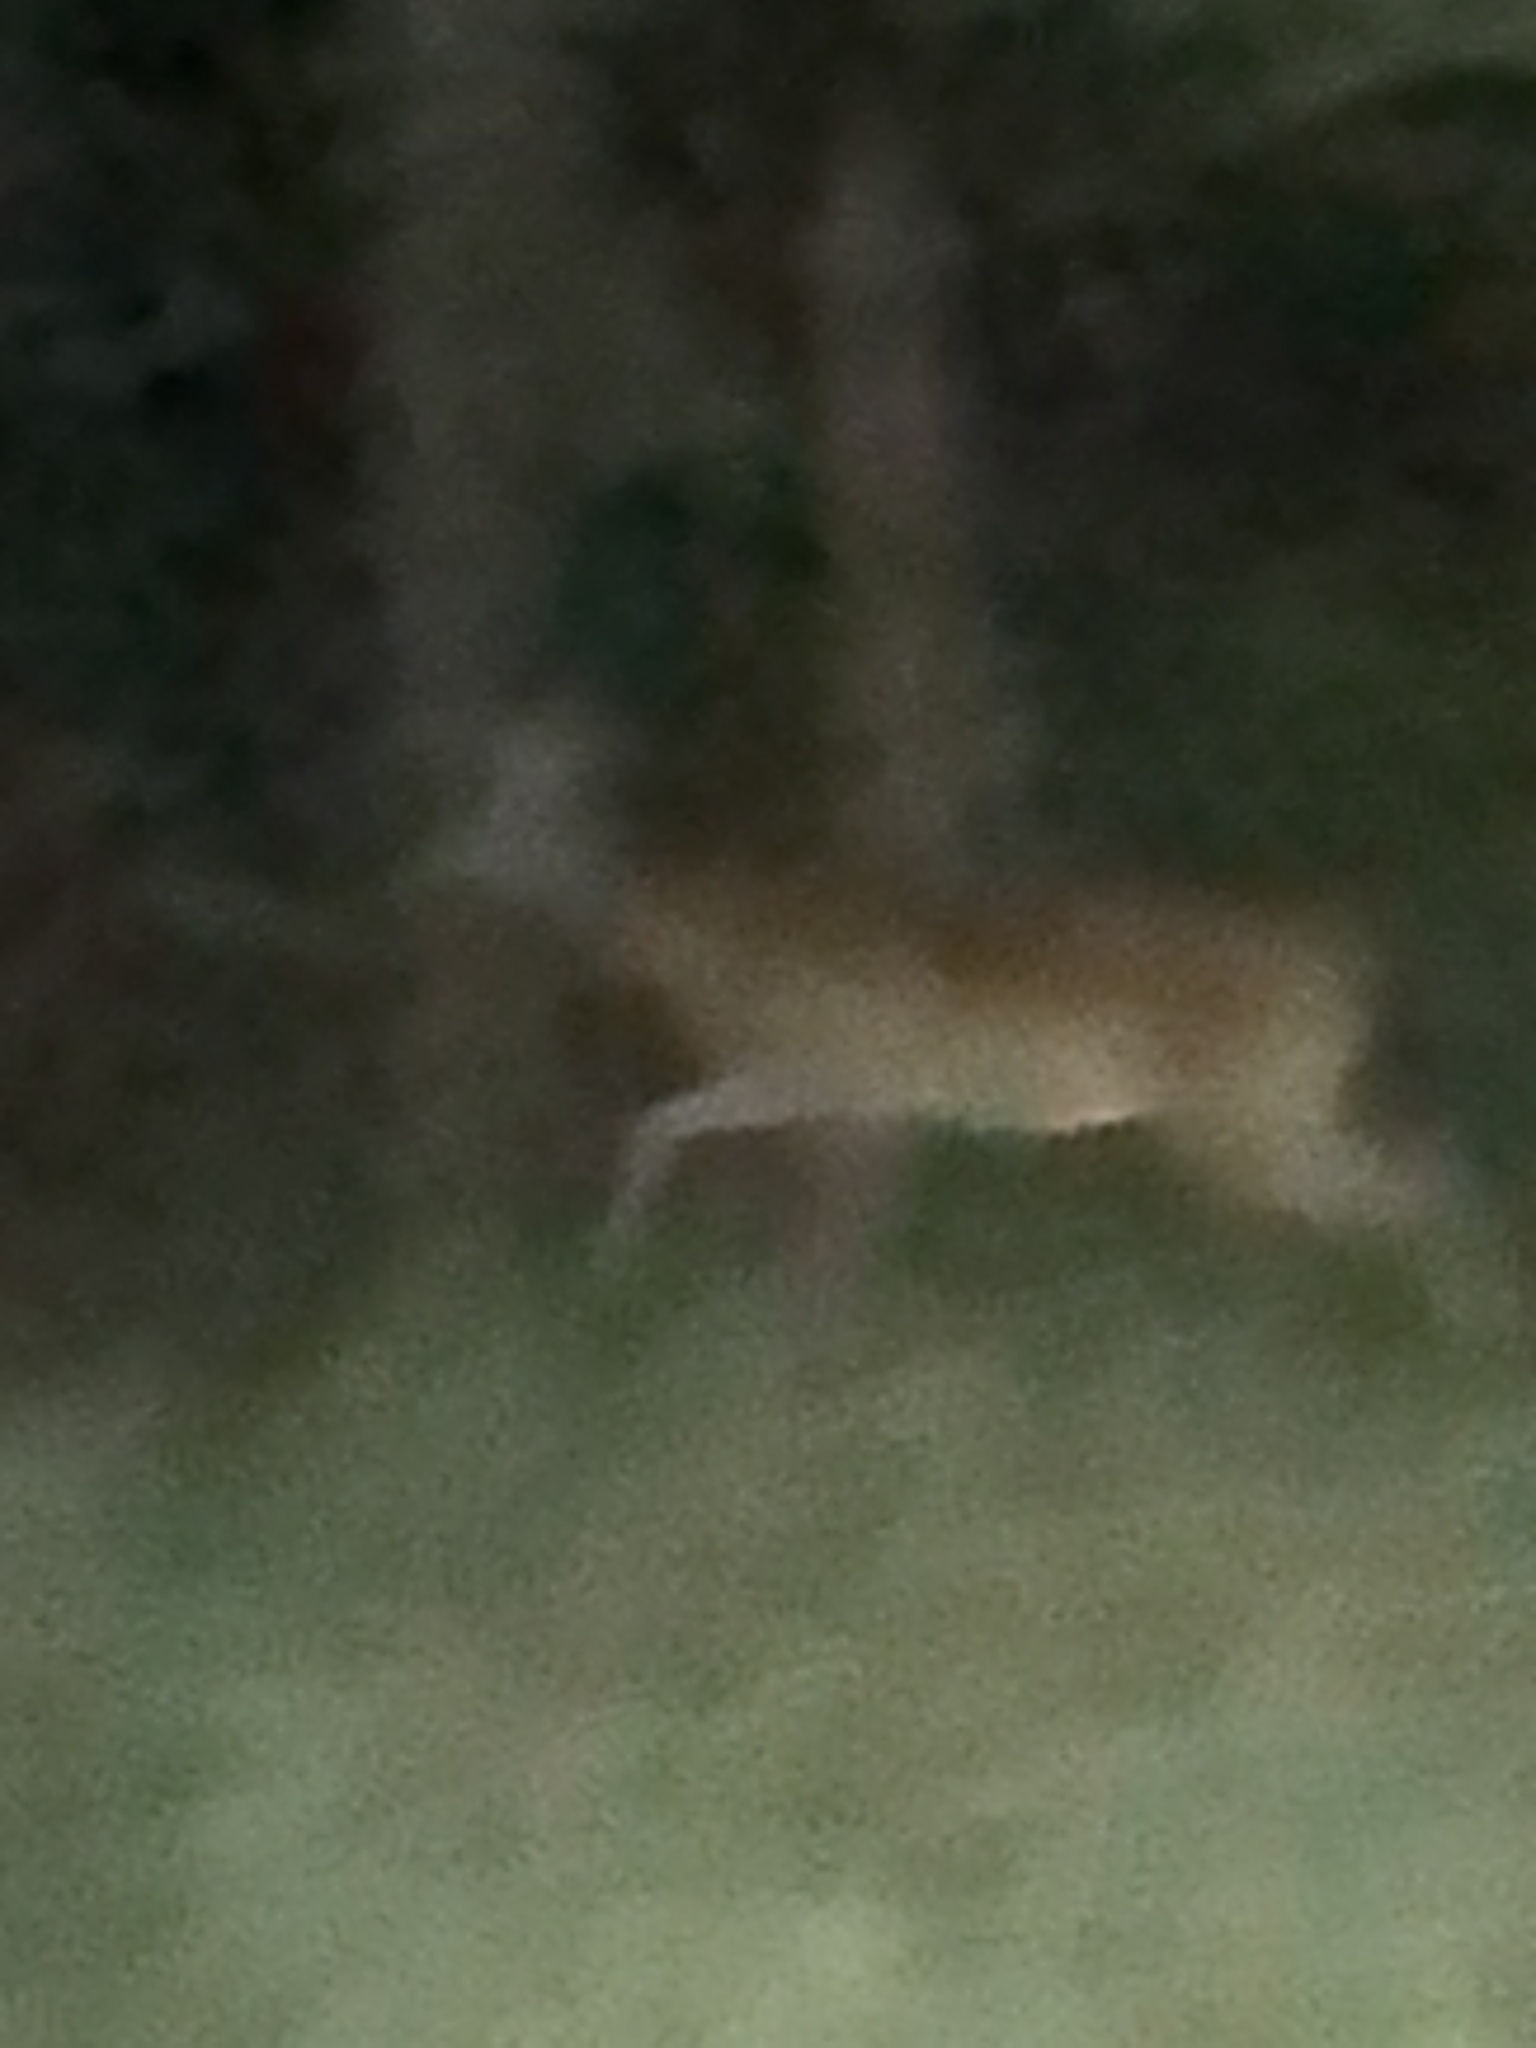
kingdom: Animalia
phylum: Chordata
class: Mammalia
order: Artiodactyla
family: Cervidae
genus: Odocoileus
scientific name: Odocoileus virginianus
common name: White-tailed deer
